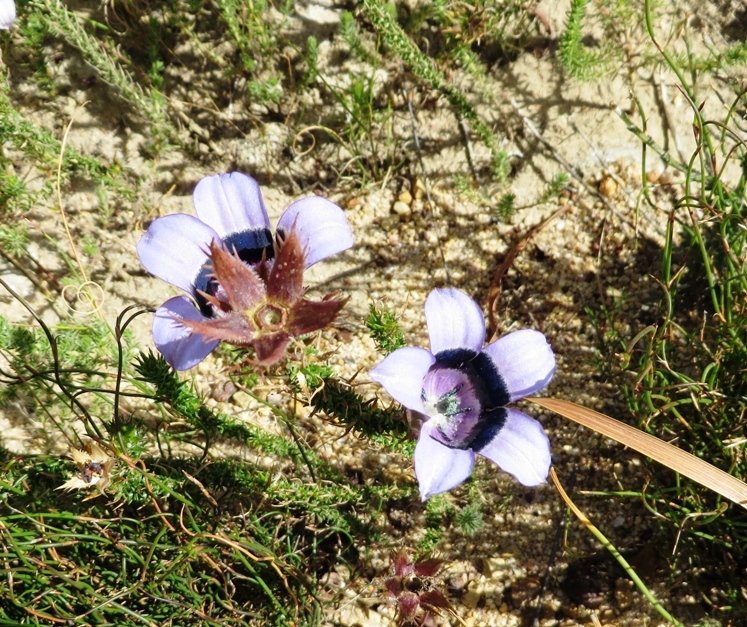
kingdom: Plantae
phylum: Tracheophyta
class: Magnoliopsida
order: Asterales
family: Campanulaceae
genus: Roella
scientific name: Roella incurva
